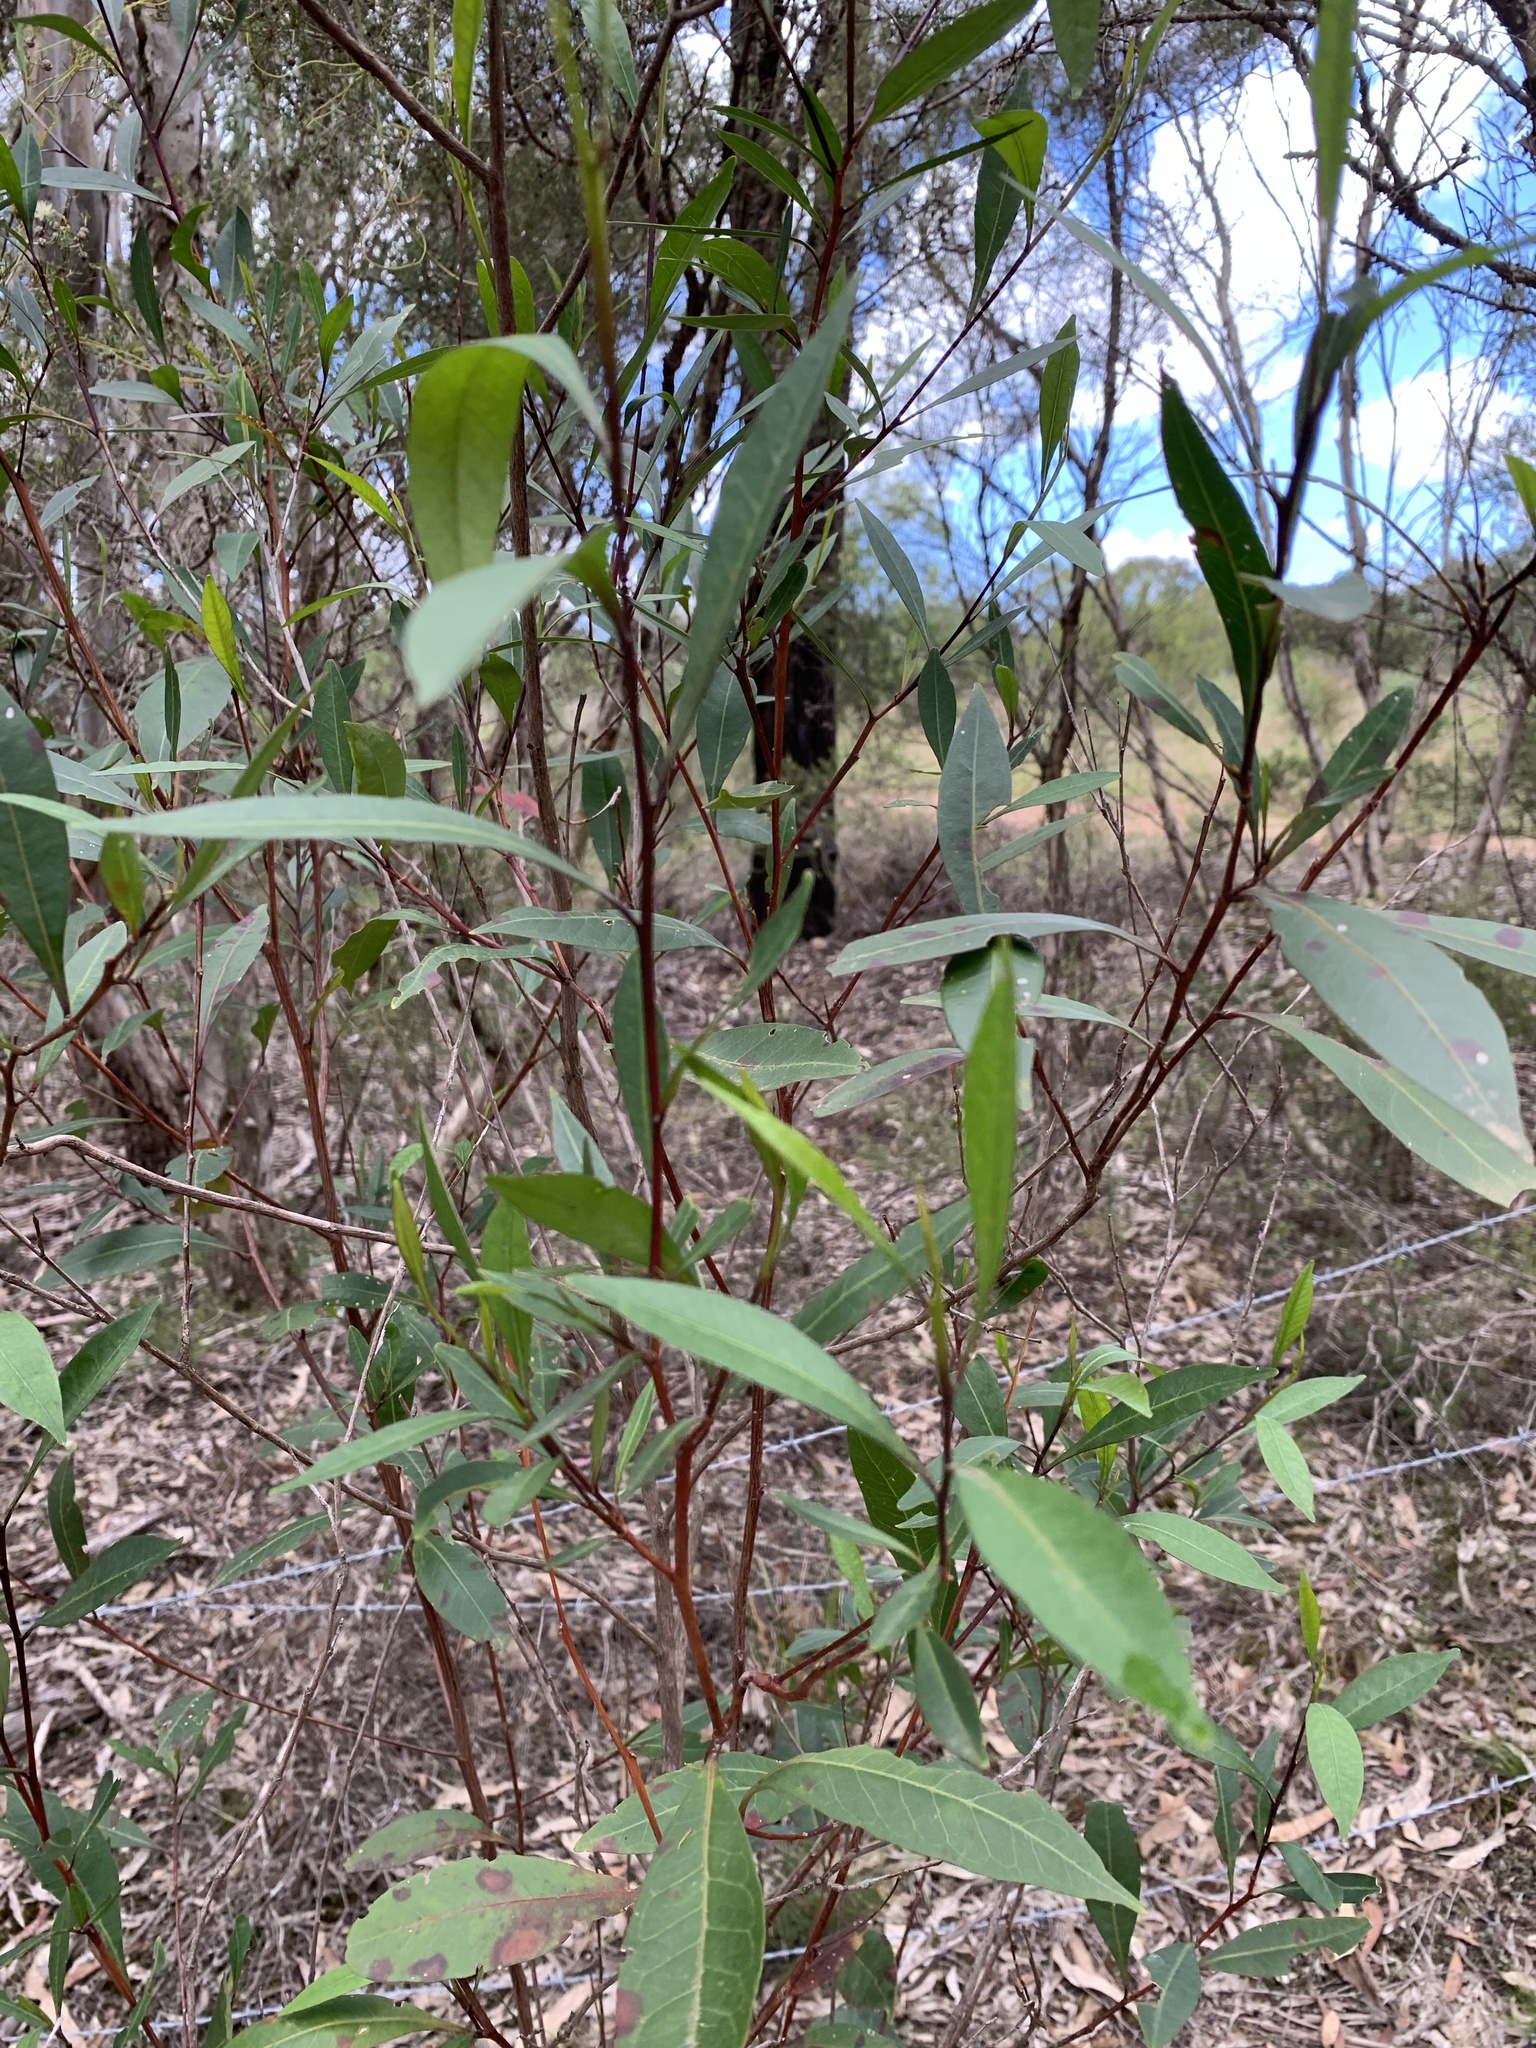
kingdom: Plantae
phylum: Tracheophyta
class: Magnoliopsida
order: Sapindales
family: Sapindaceae
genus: Dodonaea
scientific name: Dodonaea triquetra
